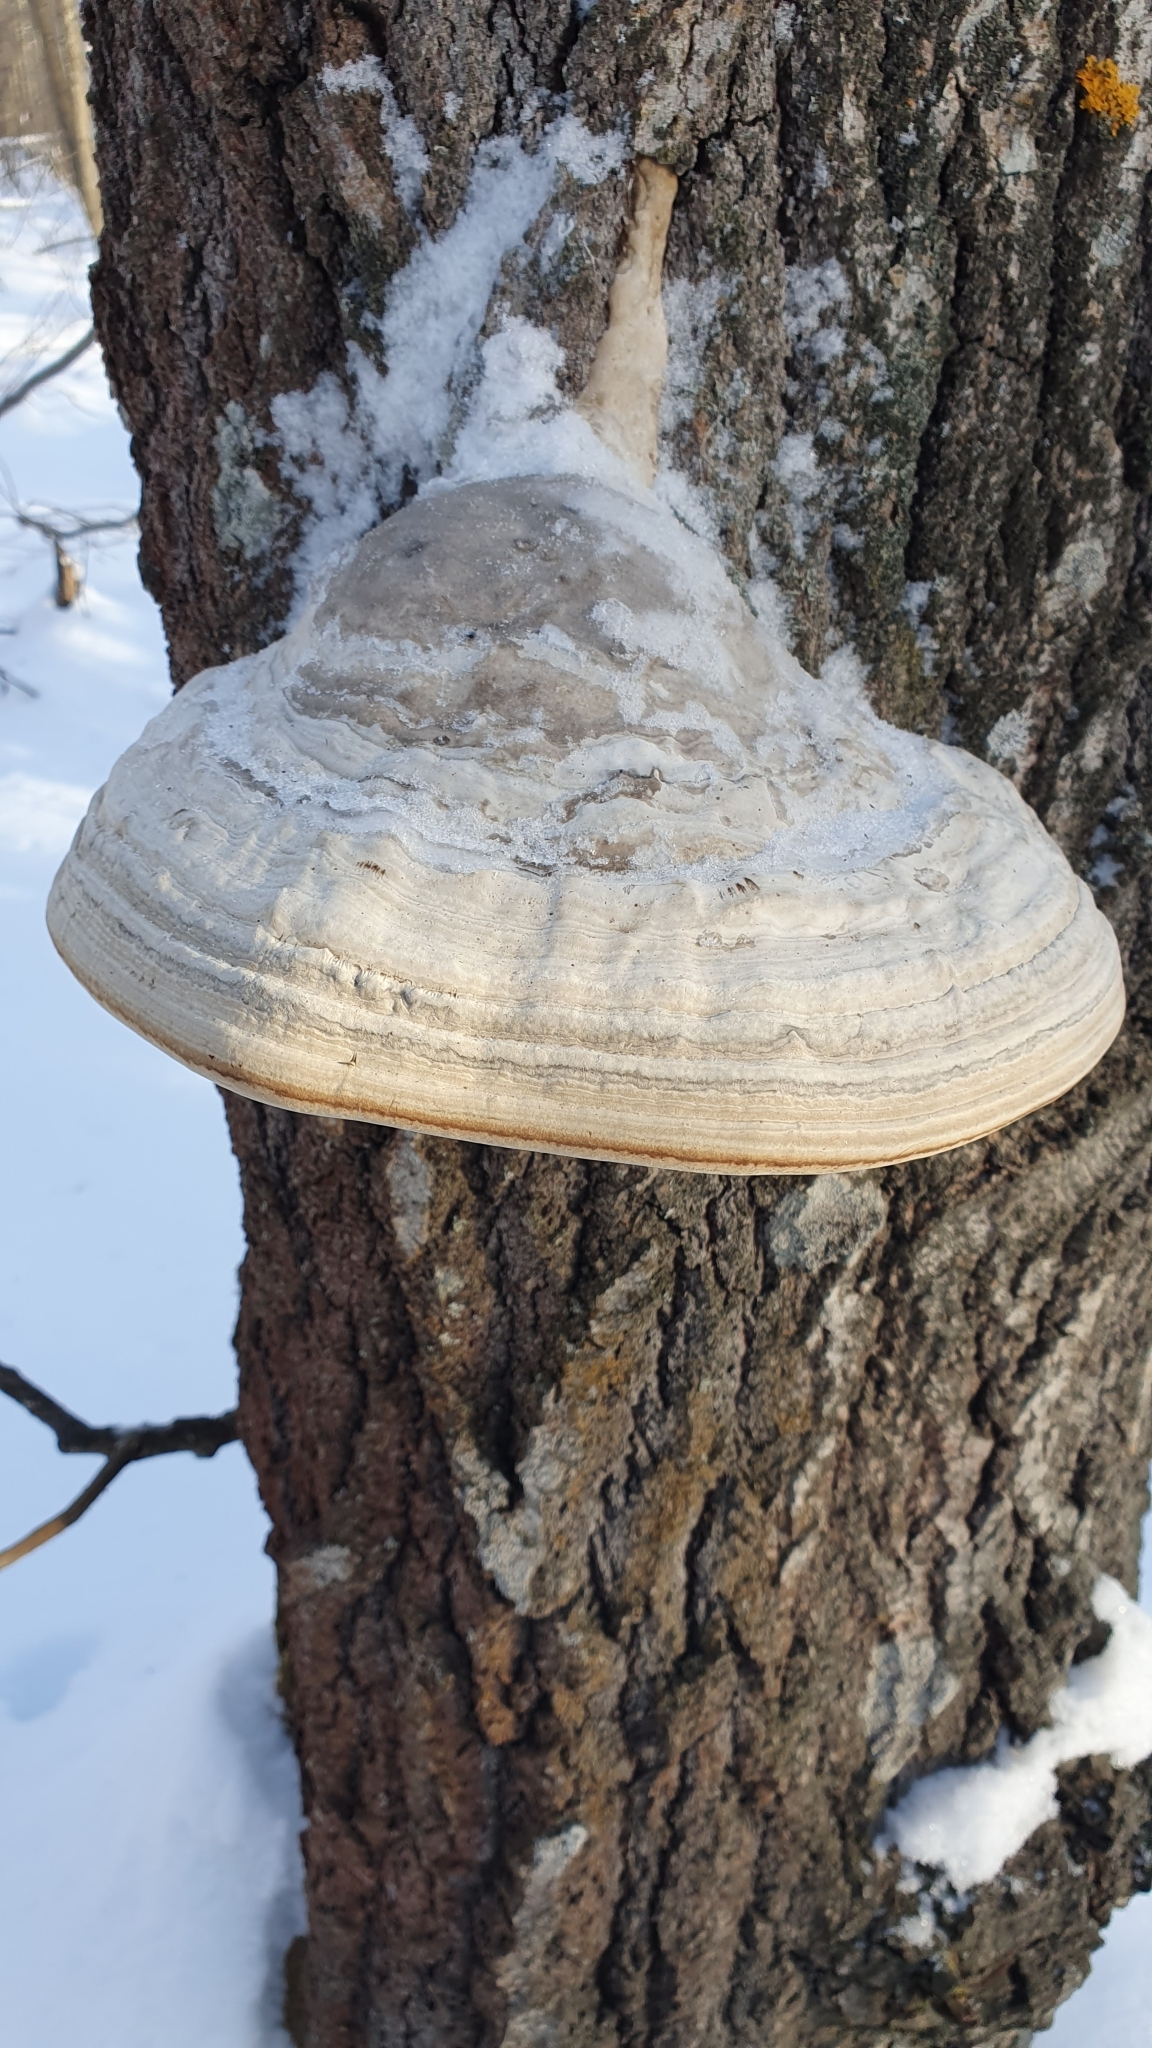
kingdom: Fungi
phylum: Basidiomycota
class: Agaricomycetes
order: Polyporales
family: Polyporaceae
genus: Fomes
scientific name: Fomes fomentarius
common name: Hoof fungus
